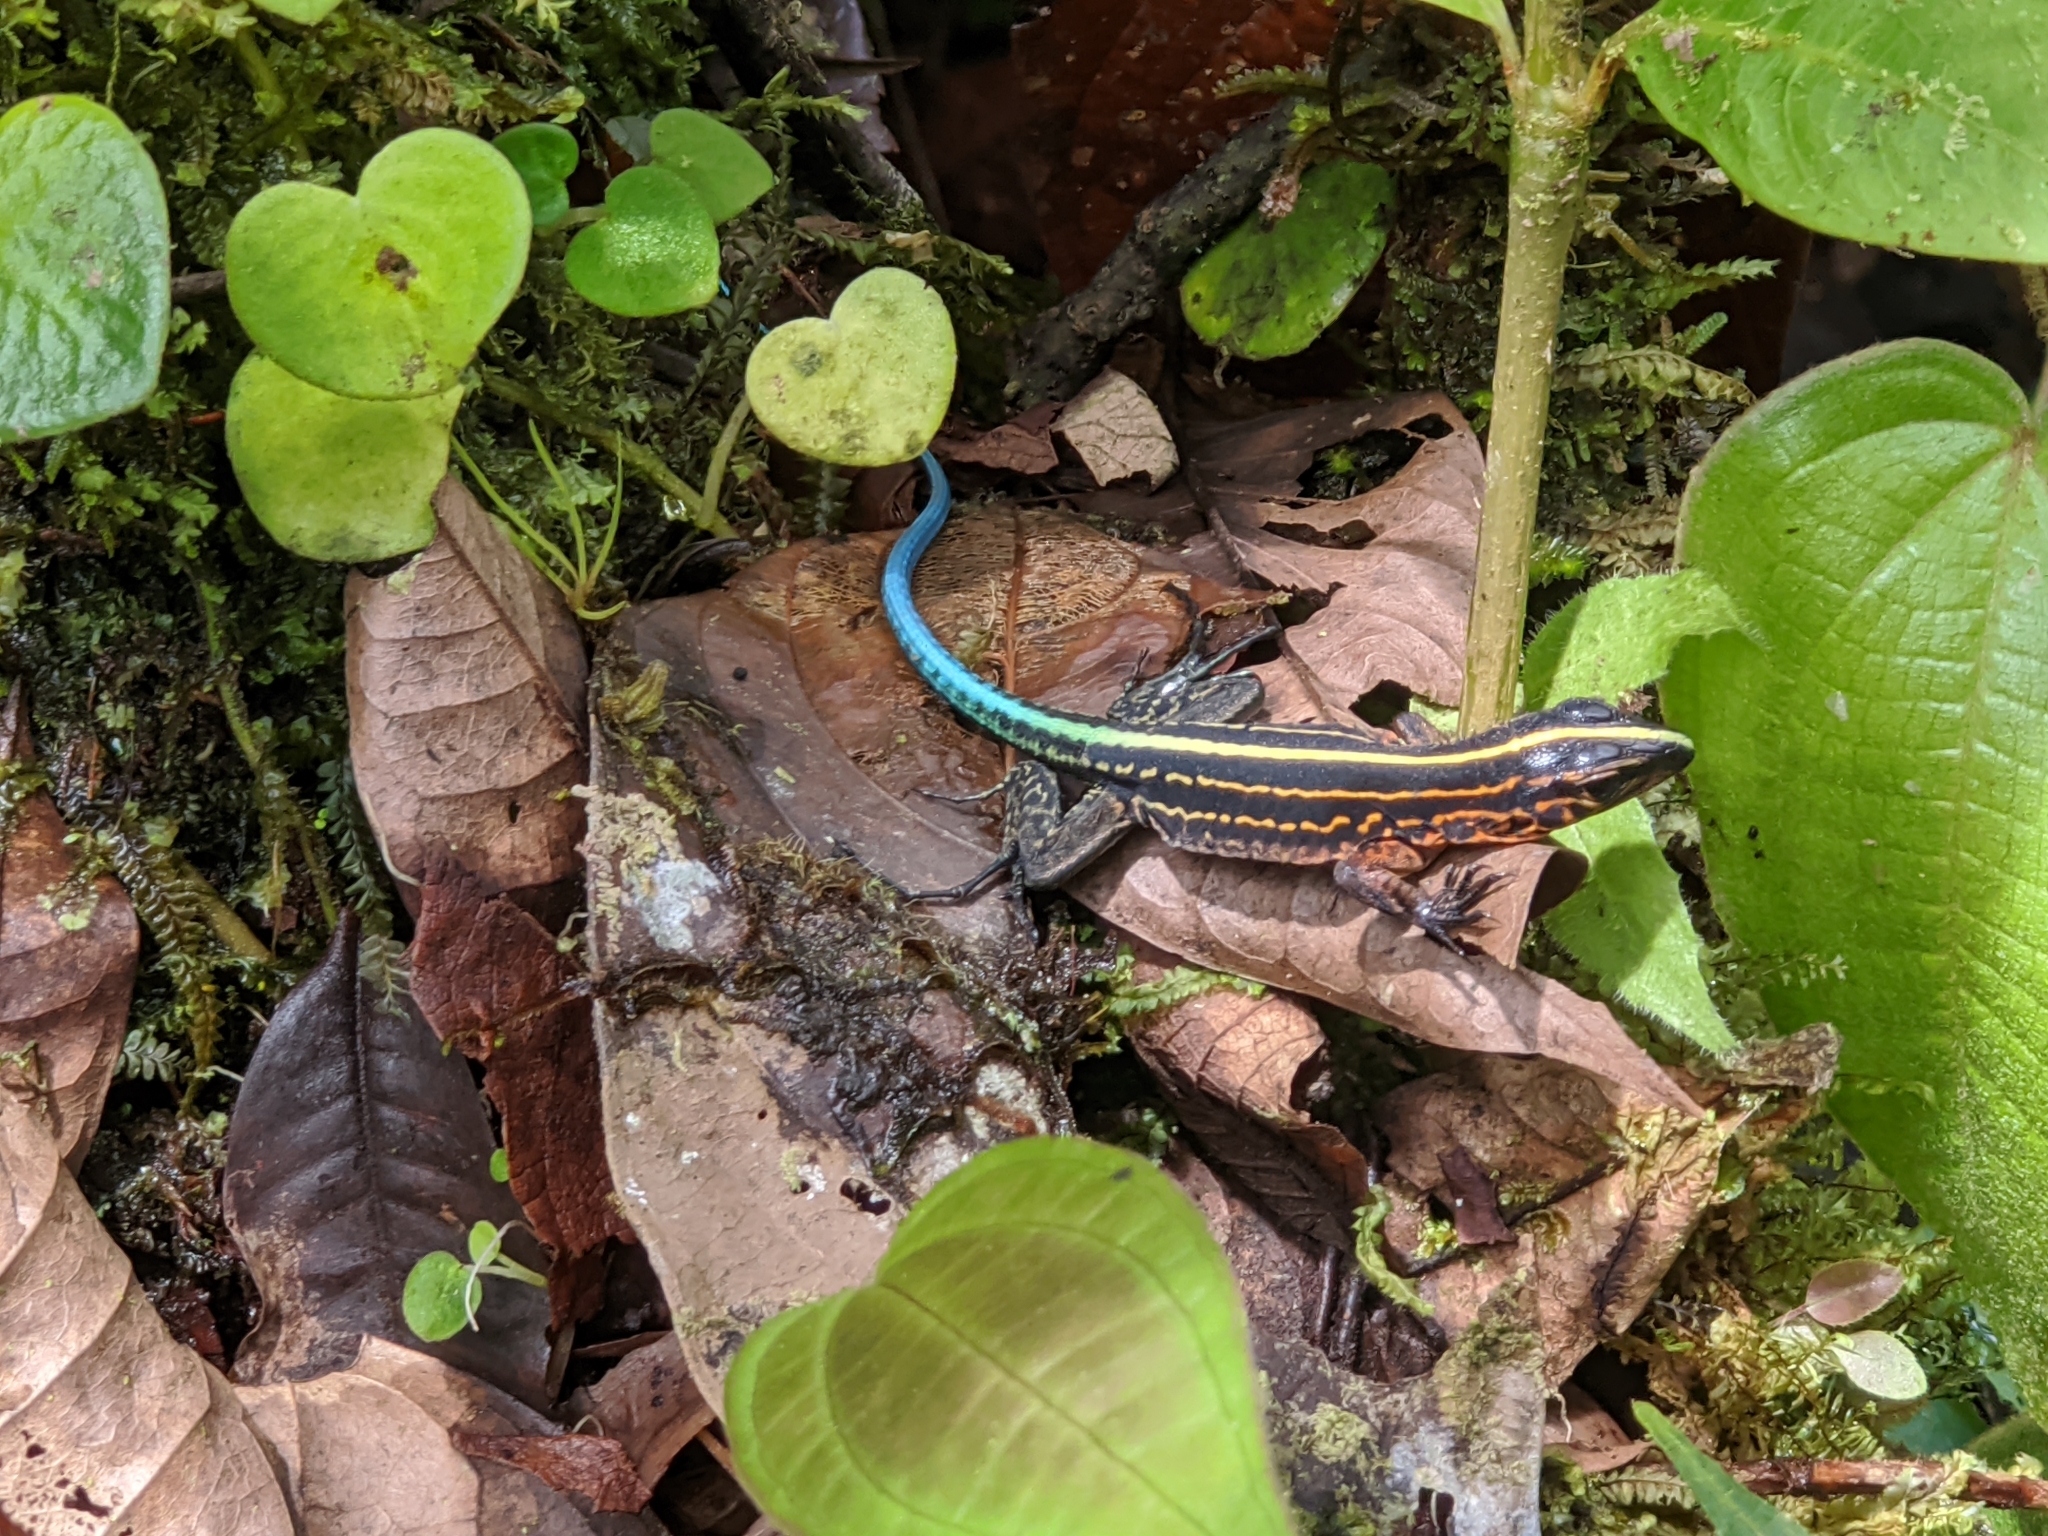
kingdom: Animalia
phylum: Chordata
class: Squamata
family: Teiidae
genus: Holcosus
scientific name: Holcosus bridgesii
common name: Bridges' ameiva
